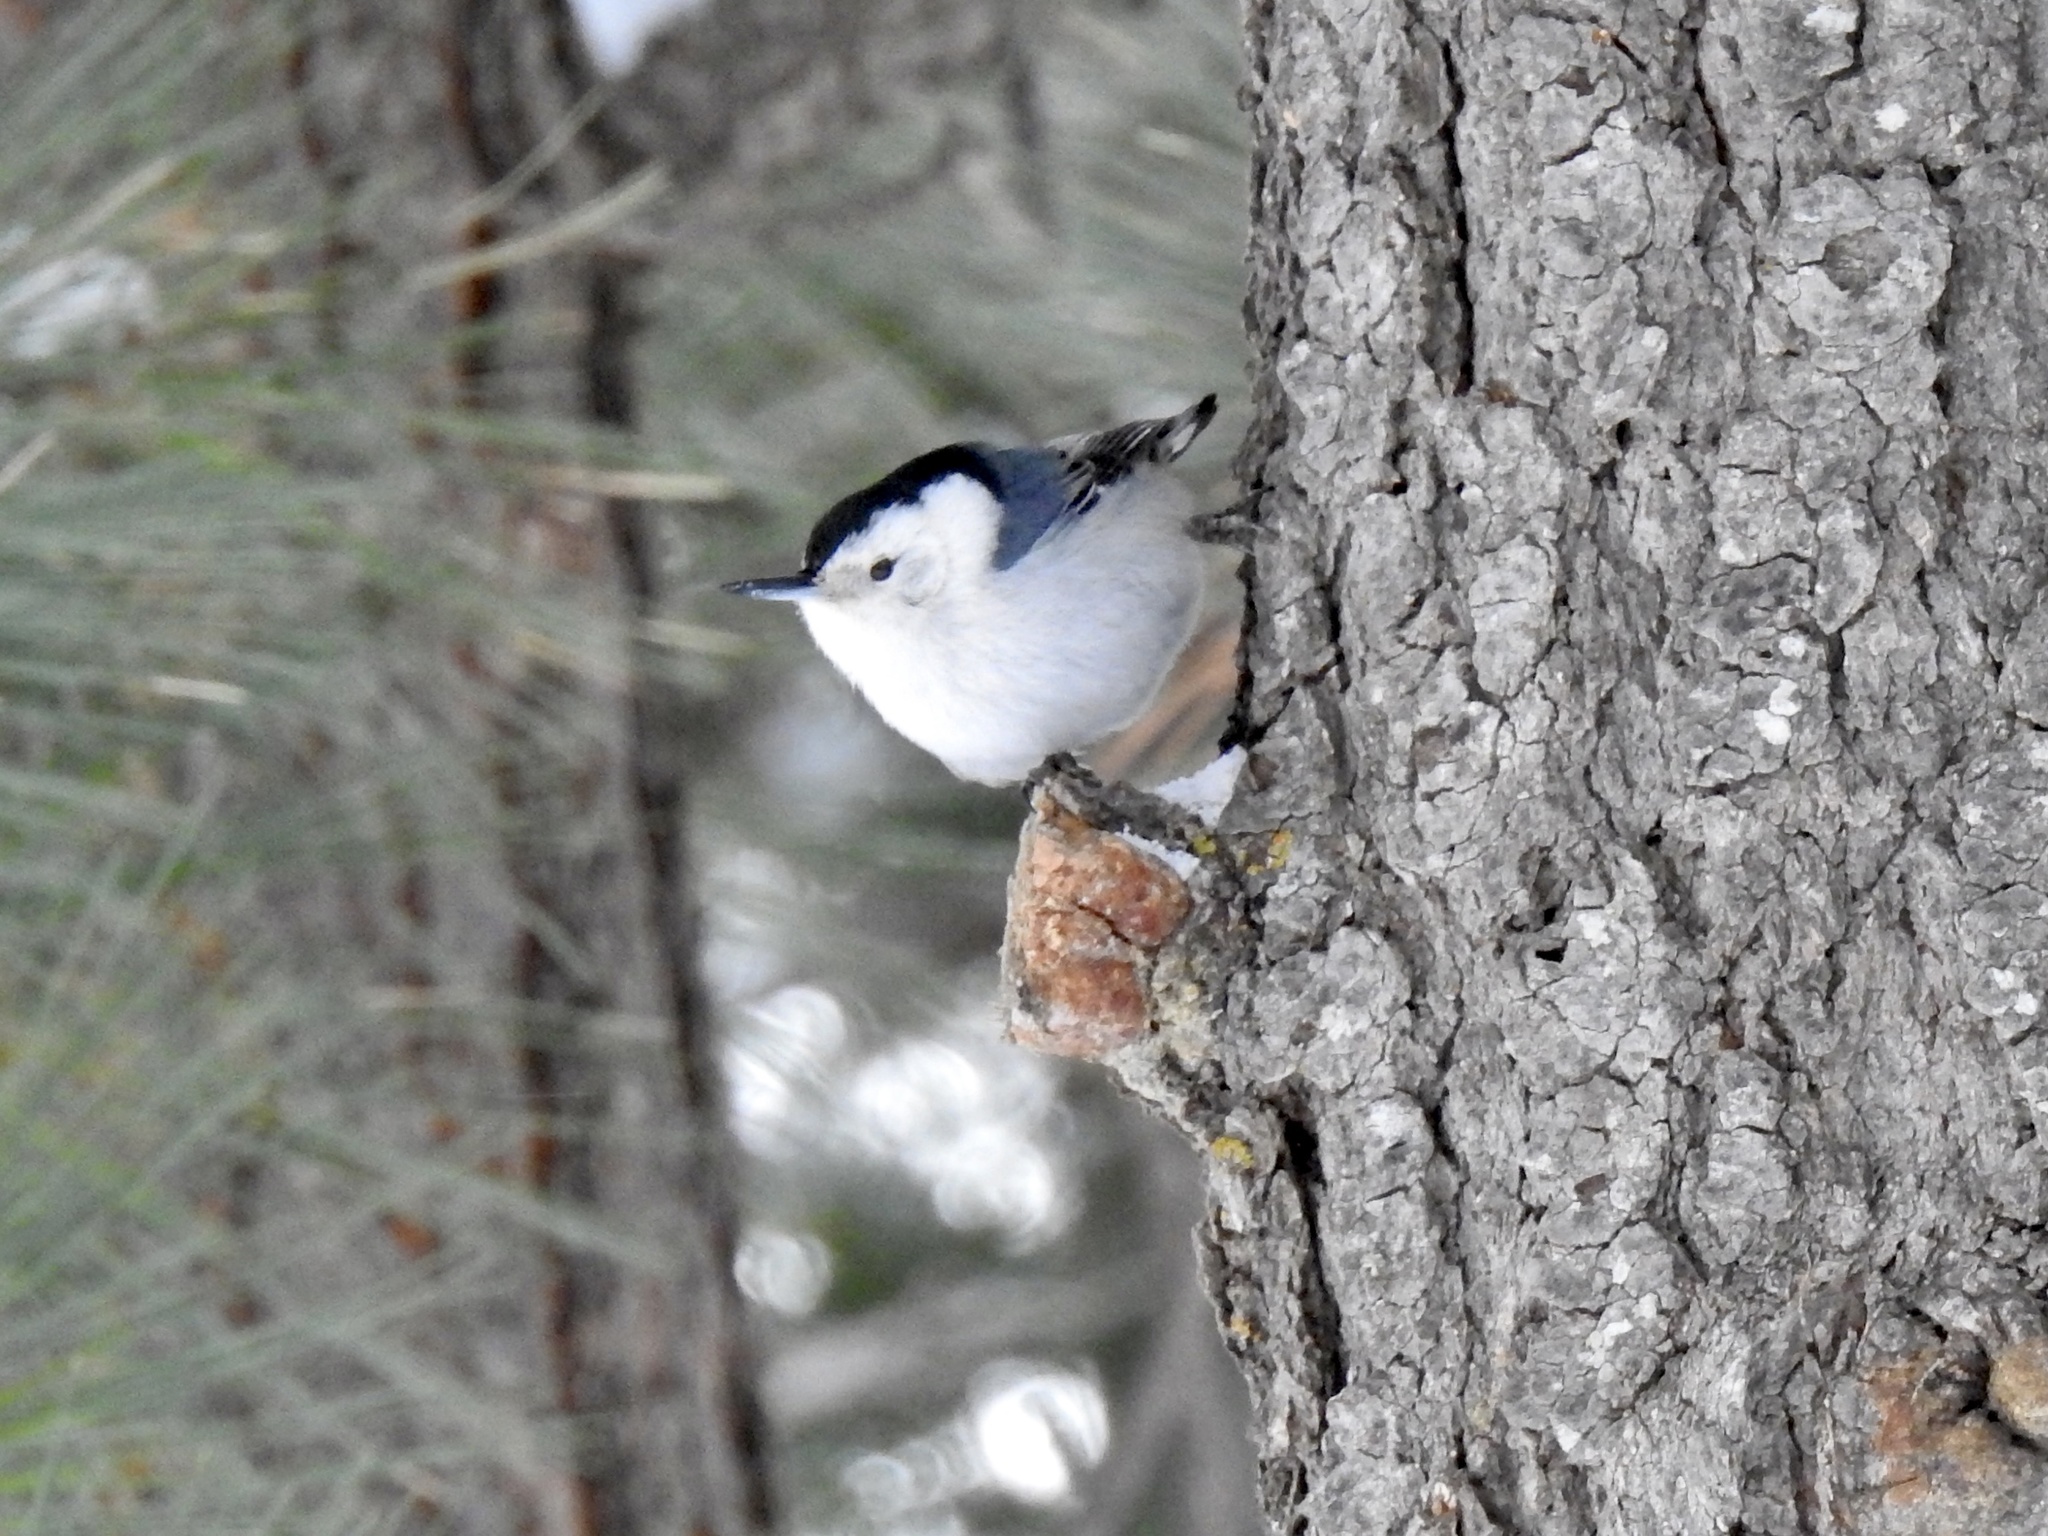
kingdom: Animalia
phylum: Chordata
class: Aves
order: Passeriformes
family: Sittidae
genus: Sitta
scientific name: Sitta carolinensis
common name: White-breasted nuthatch
